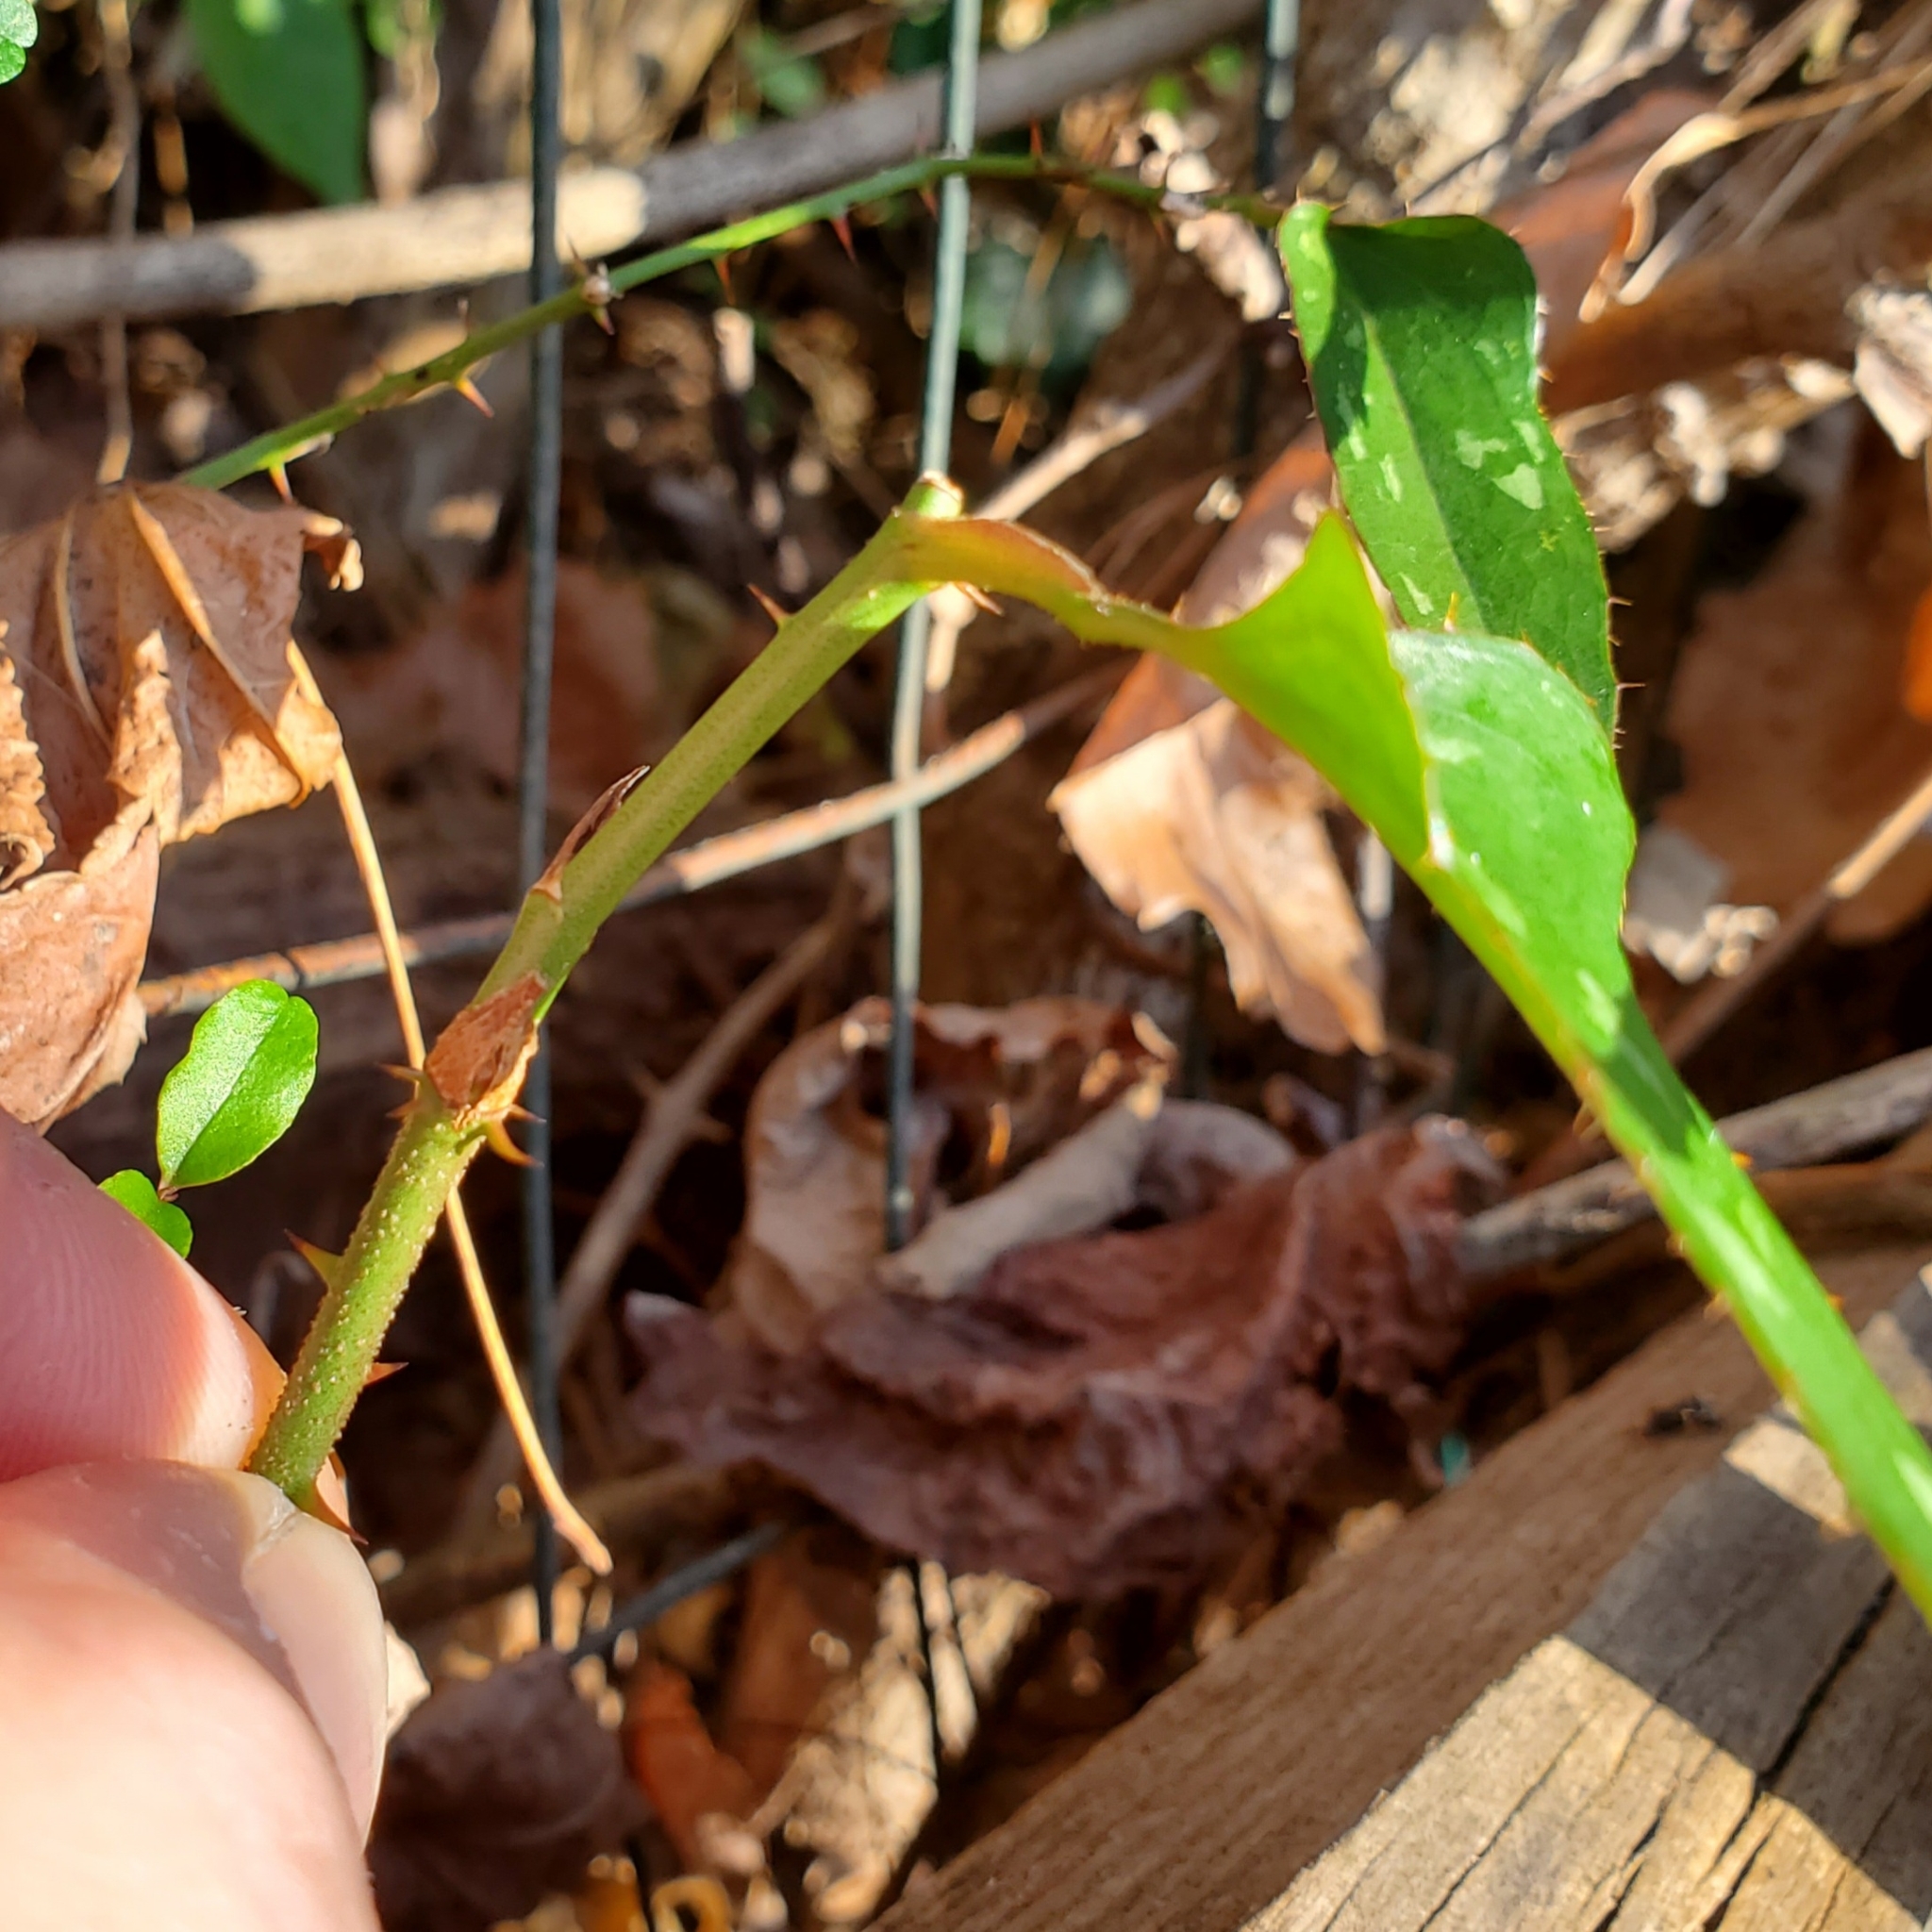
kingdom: Plantae
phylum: Tracheophyta
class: Liliopsida
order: Liliales
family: Smilacaceae
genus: Smilax
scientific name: Smilax bona-nox
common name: Catbrier
